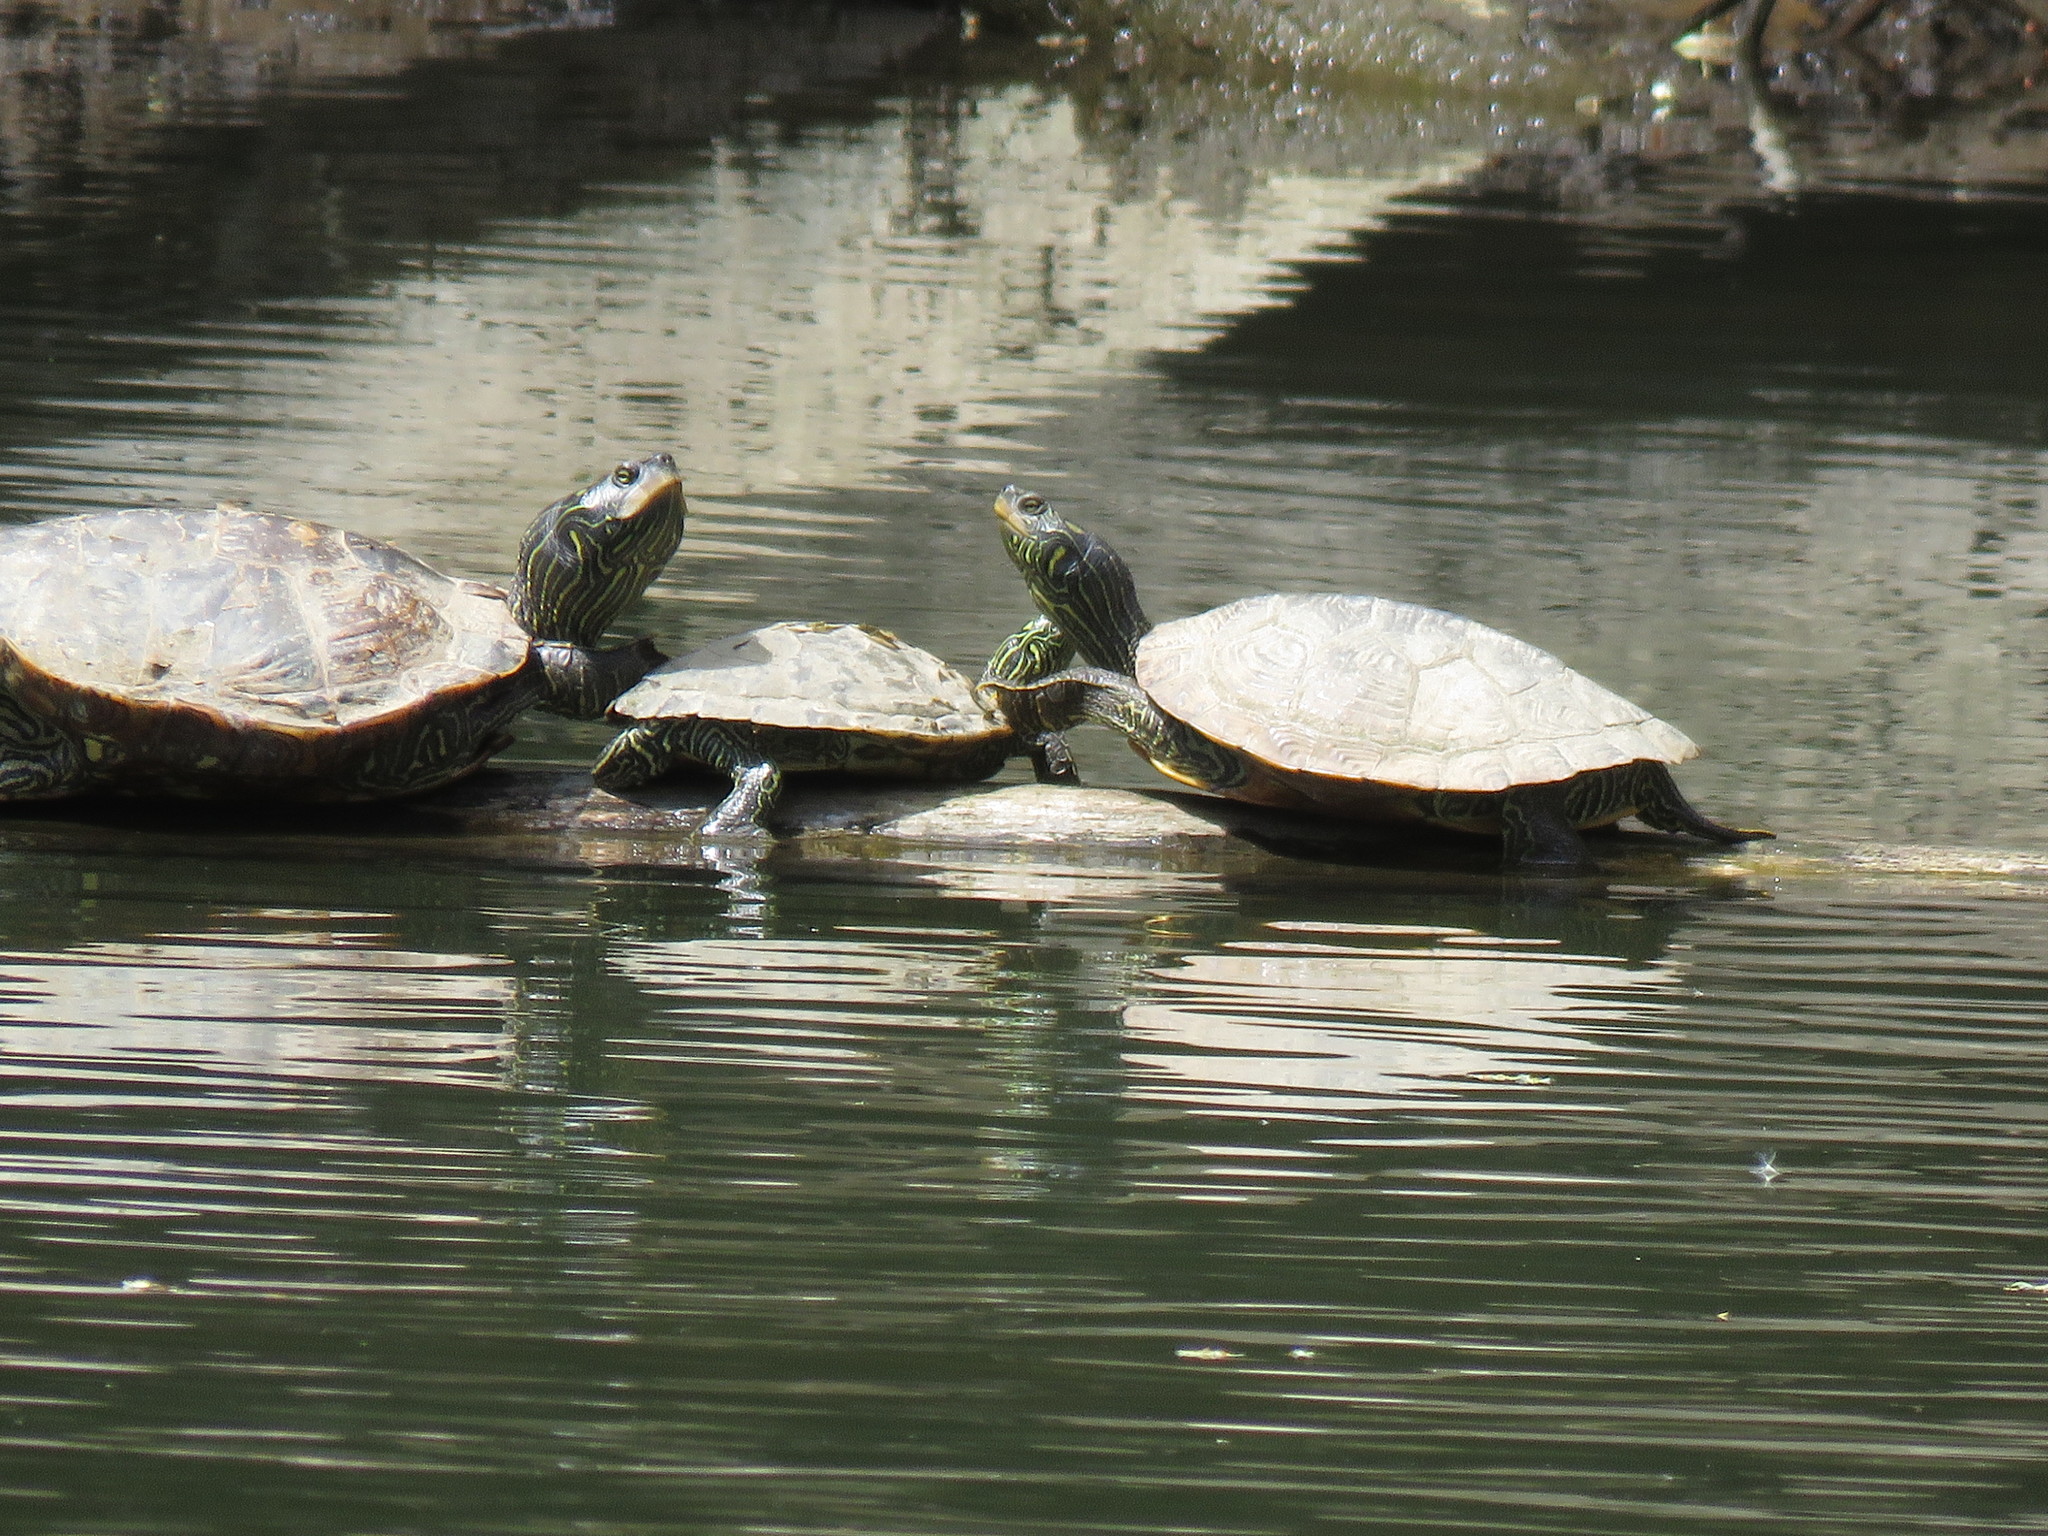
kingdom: Animalia
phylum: Chordata
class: Testudines
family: Emydidae
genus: Graptemys
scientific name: Graptemys geographica
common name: Common map turtle
